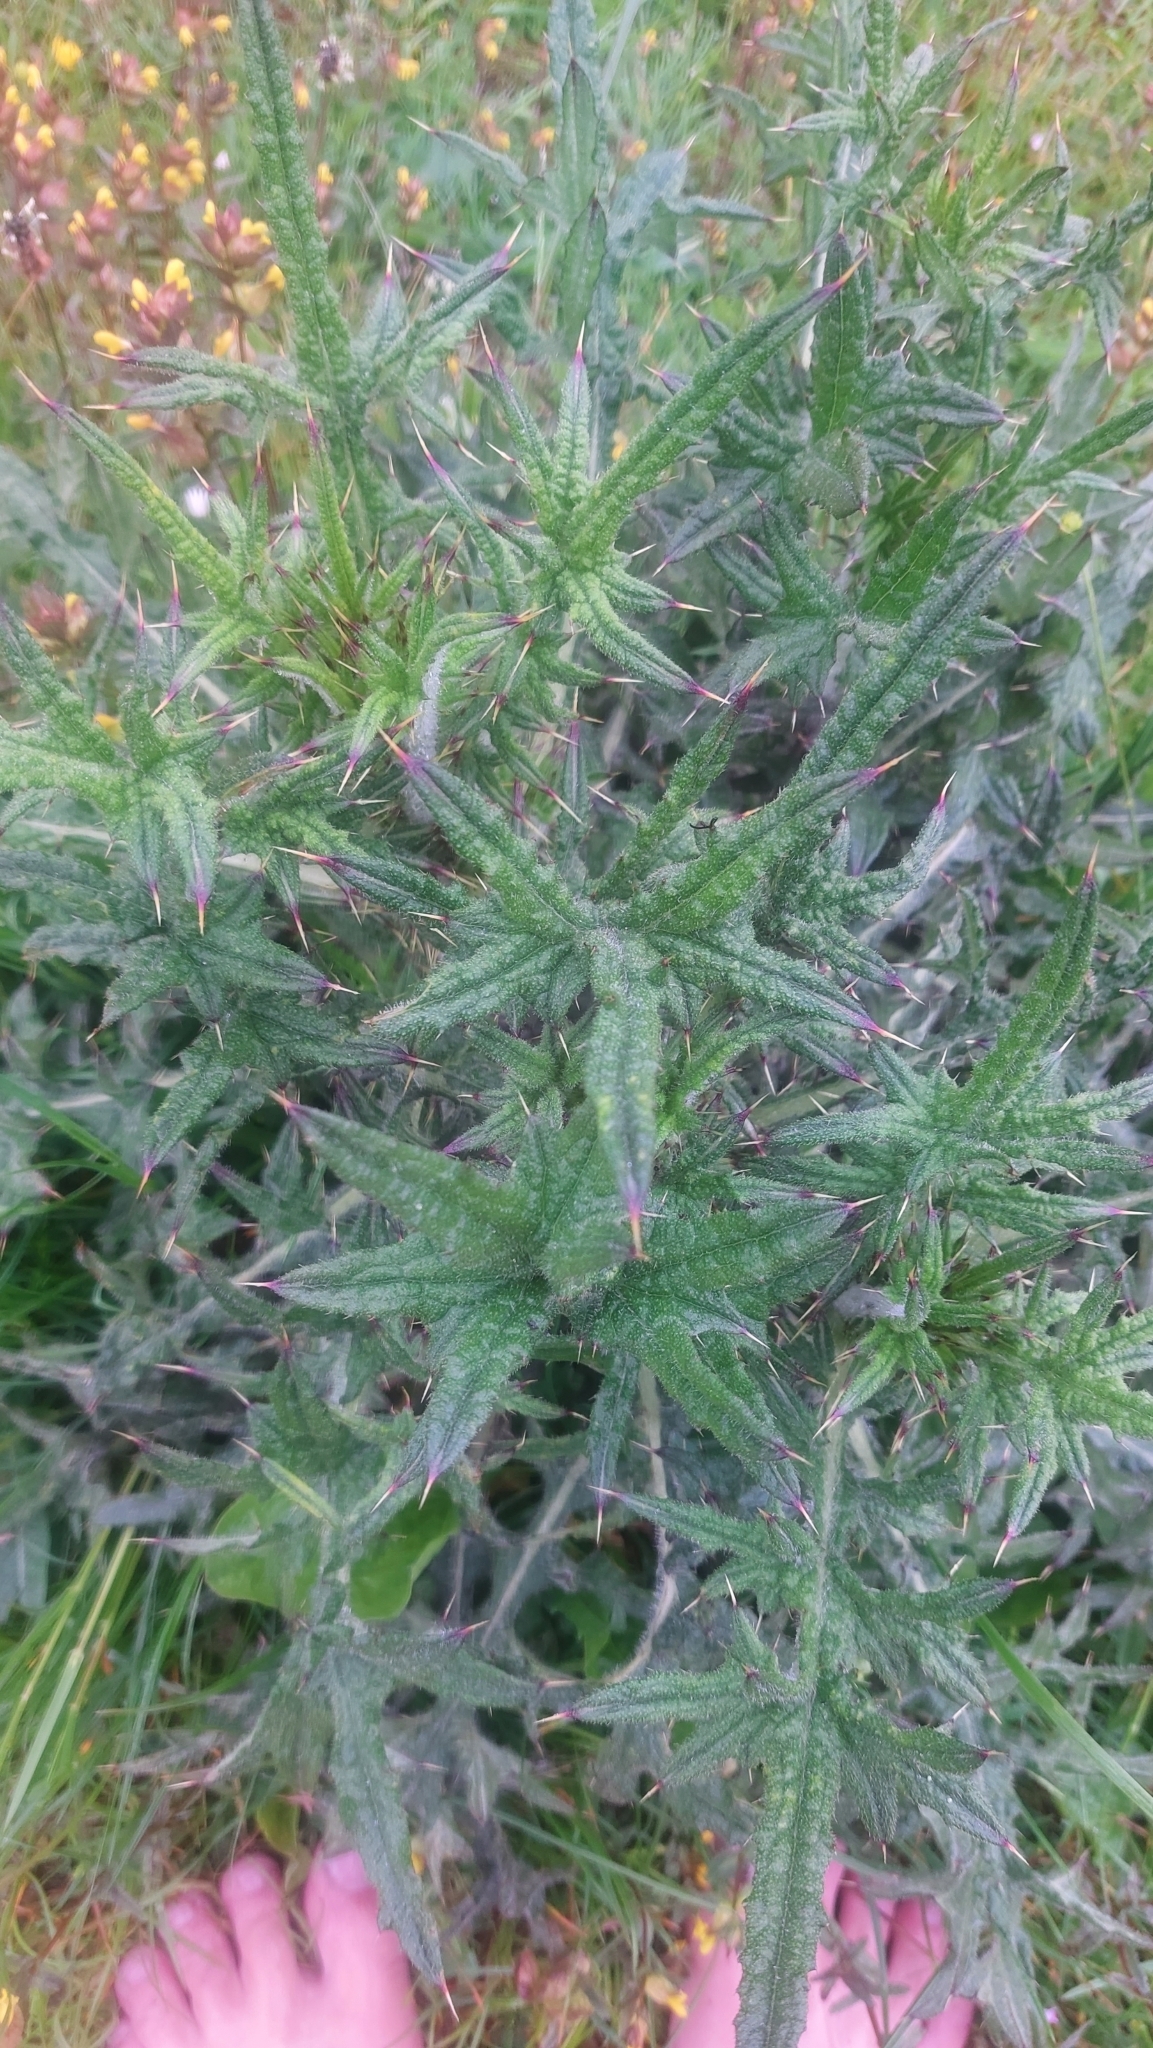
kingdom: Plantae
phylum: Tracheophyta
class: Magnoliopsida
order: Asterales
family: Asteraceae
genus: Cirsium
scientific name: Cirsium vulgare
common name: Bull thistle
